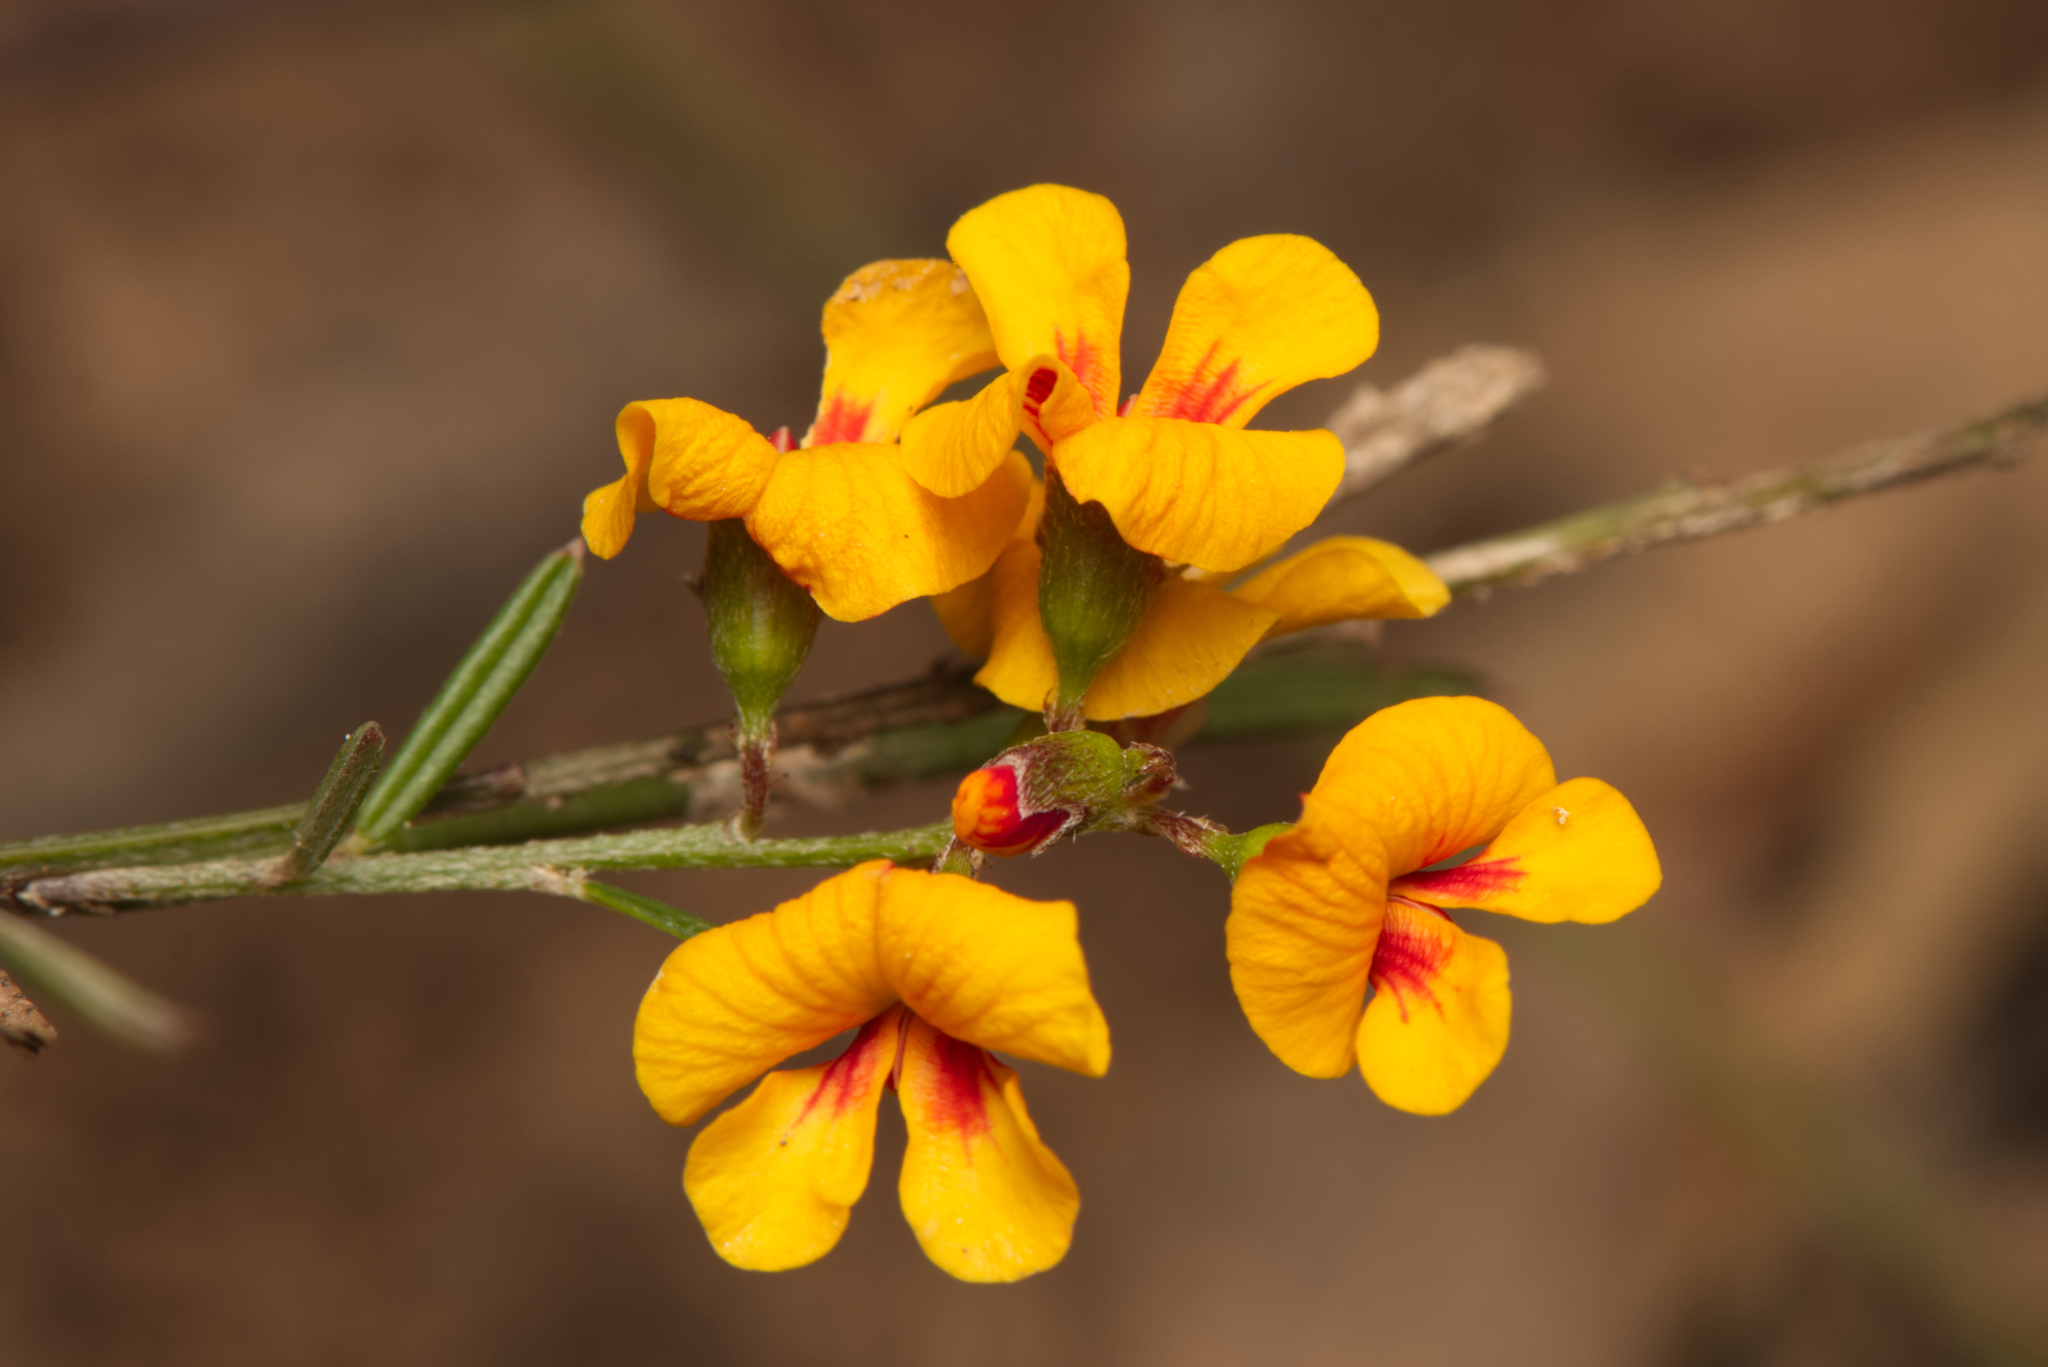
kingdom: Plantae
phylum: Tracheophyta
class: Magnoliopsida
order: Fabales
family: Fabaceae
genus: Chorizema
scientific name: Chorizema parviflorum
